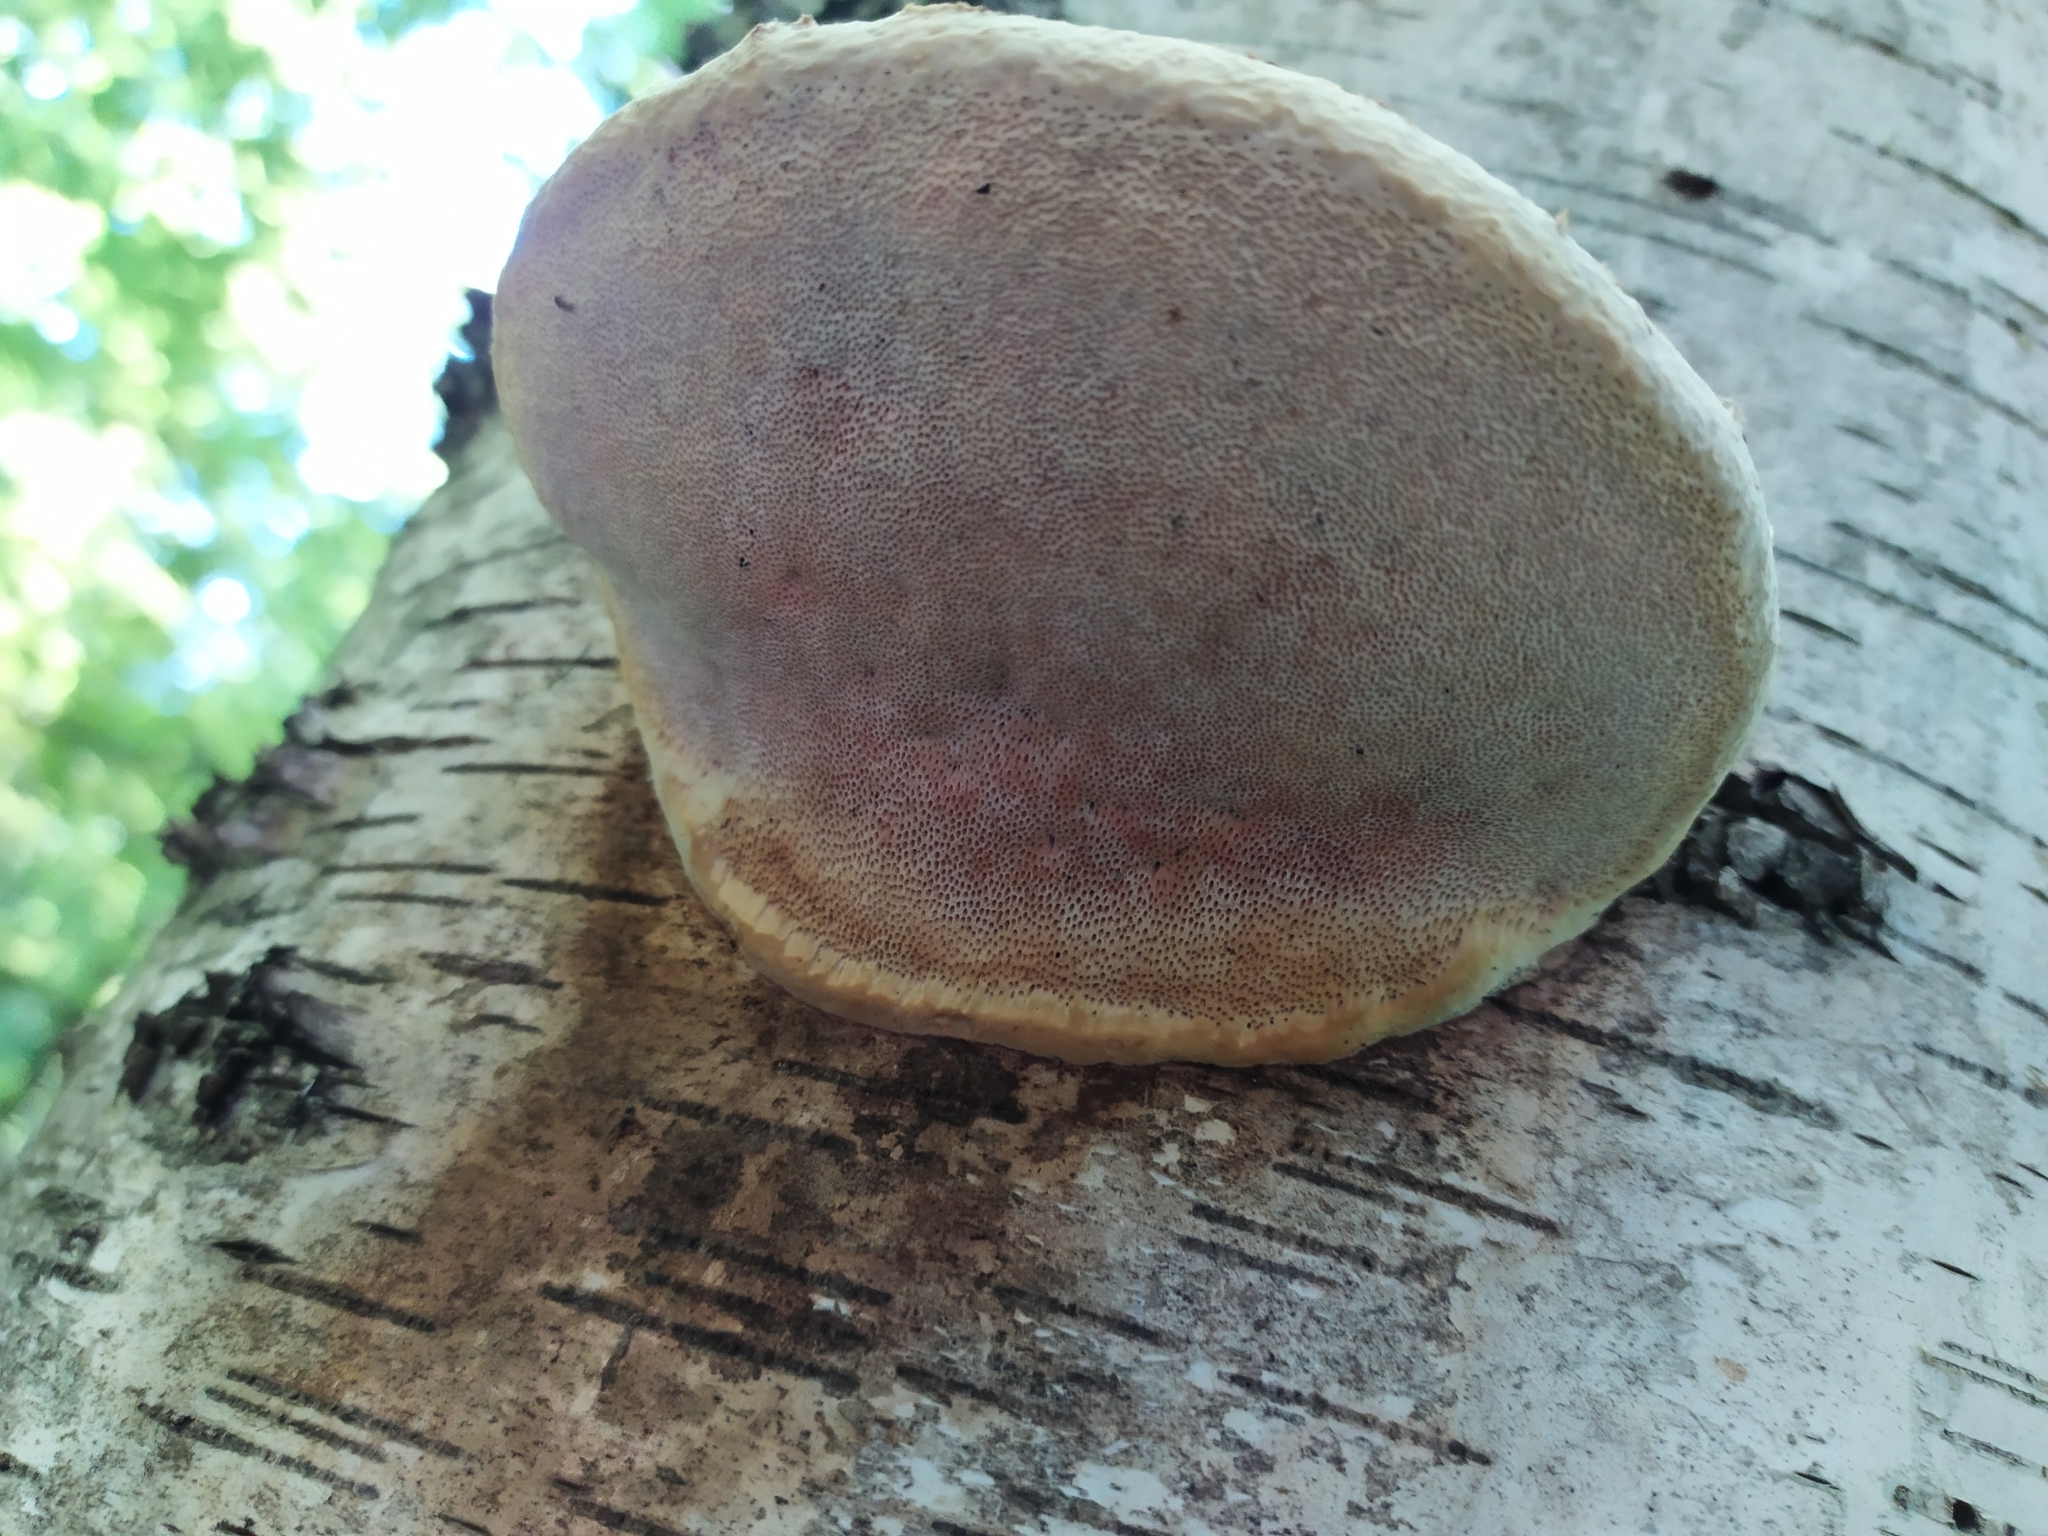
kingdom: Fungi
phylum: Basidiomycota
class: Agaricomycetes
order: Polyporales
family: Polyporaceae
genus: Ganoderma
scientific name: Ganoderma applanatum
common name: Artist's bracket
